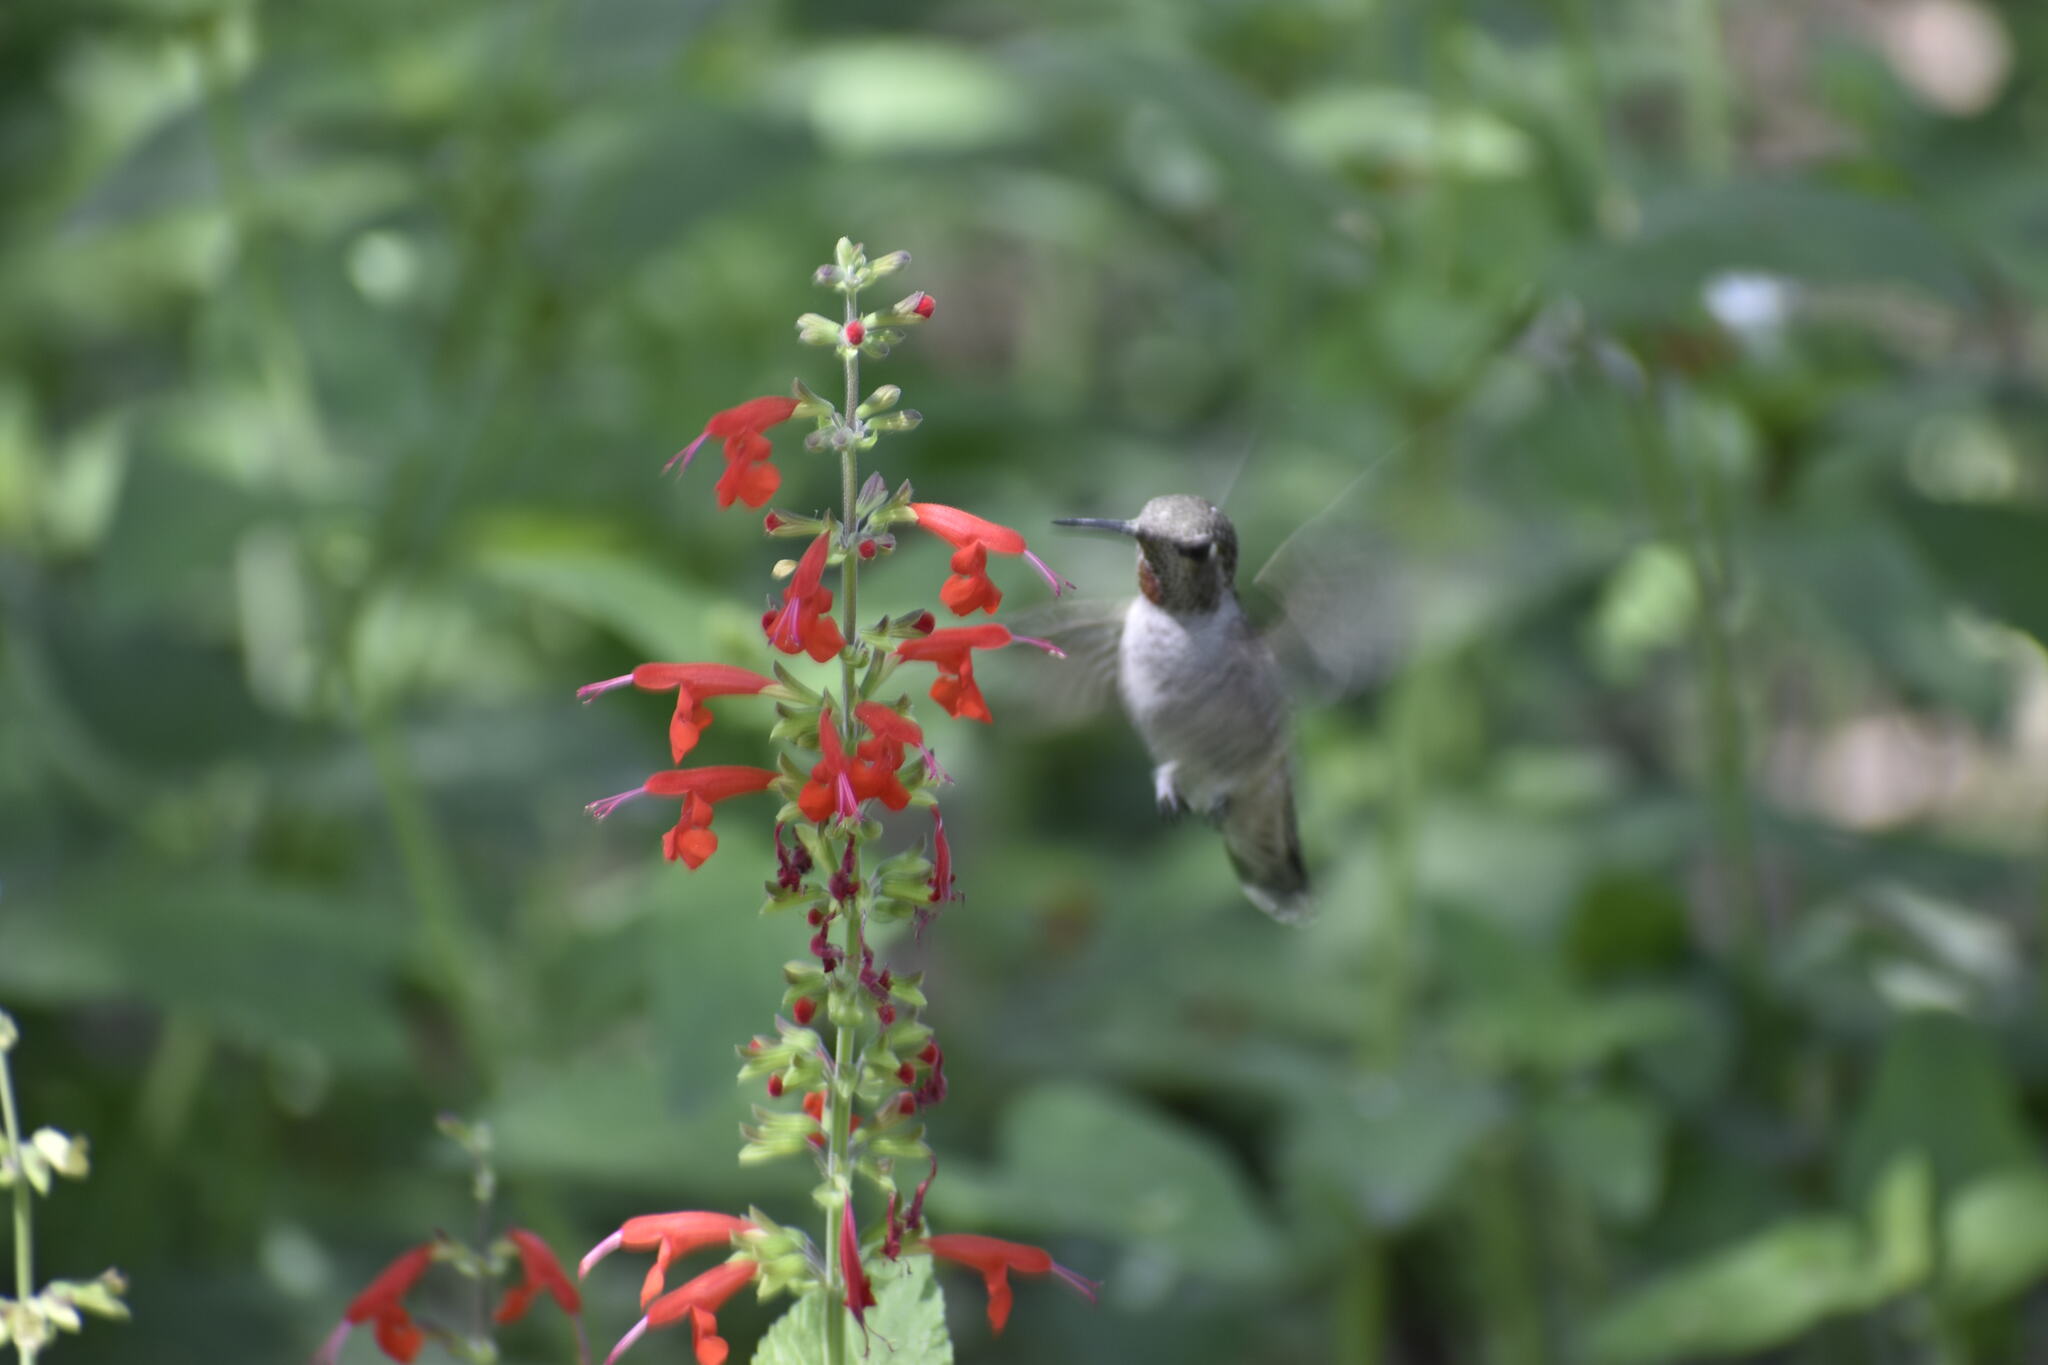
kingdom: Animalia
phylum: Chordata
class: Aves
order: Apodiformes
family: Trochilidae
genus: Calypte
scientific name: Calypte anna
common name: Anna's hummingbird
